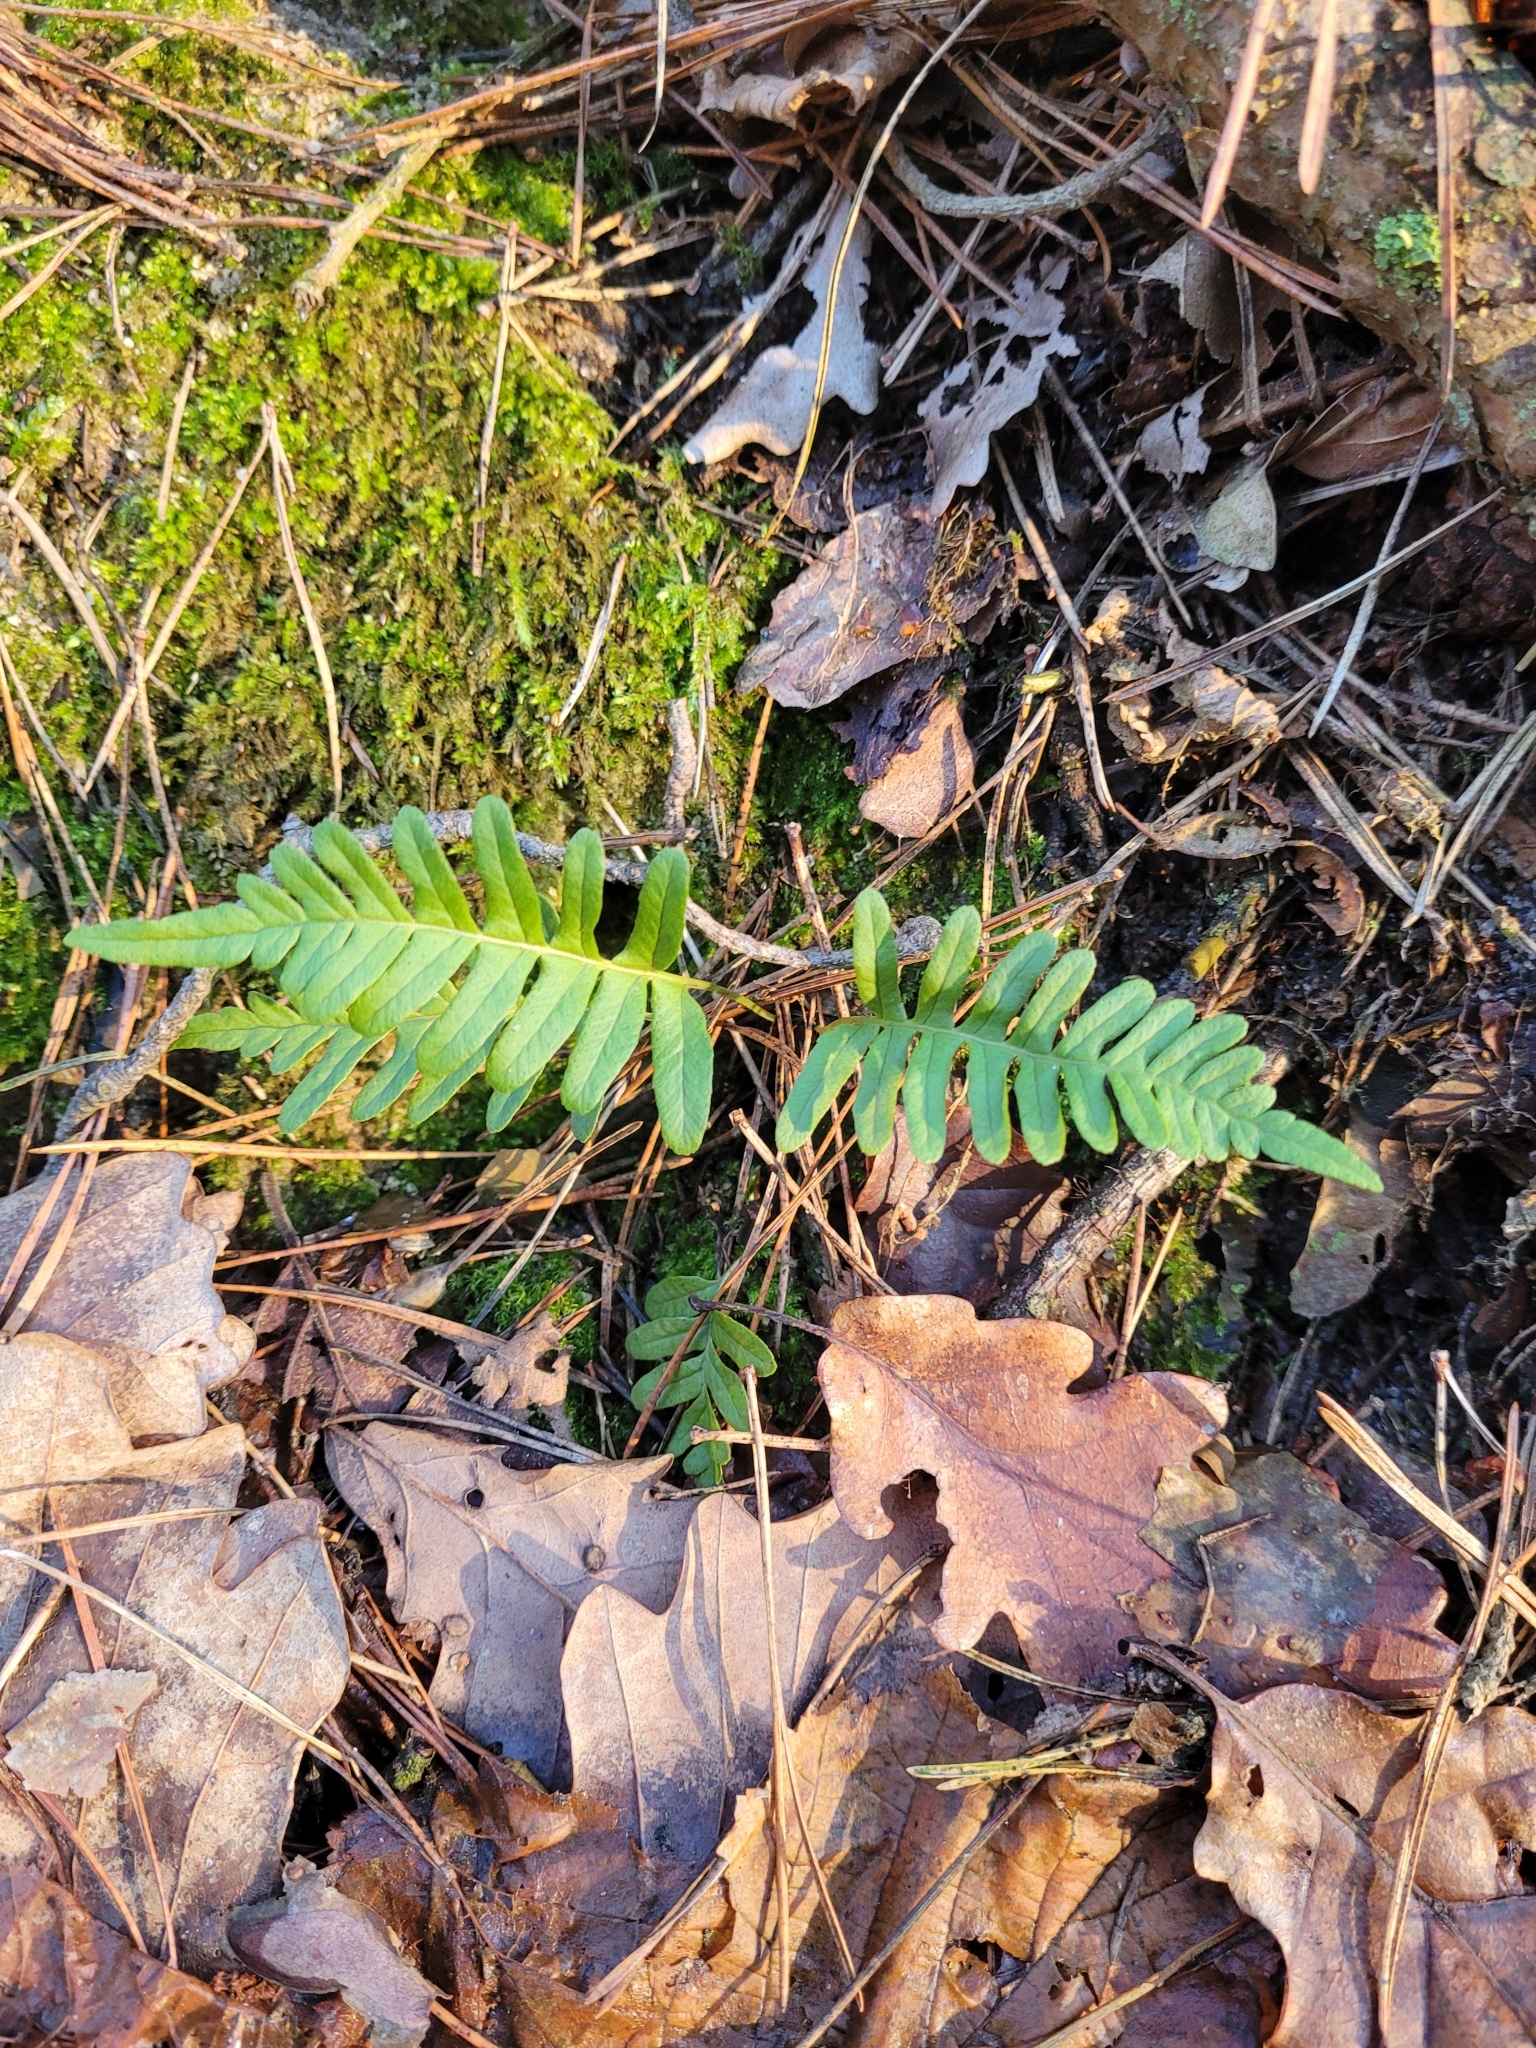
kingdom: Plantae
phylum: Tracheophyta
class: Polypodiopsida
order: Polypodiales
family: Polypodiaceae
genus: Polypodium
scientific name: Polypodium vulgare
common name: Common polypody
